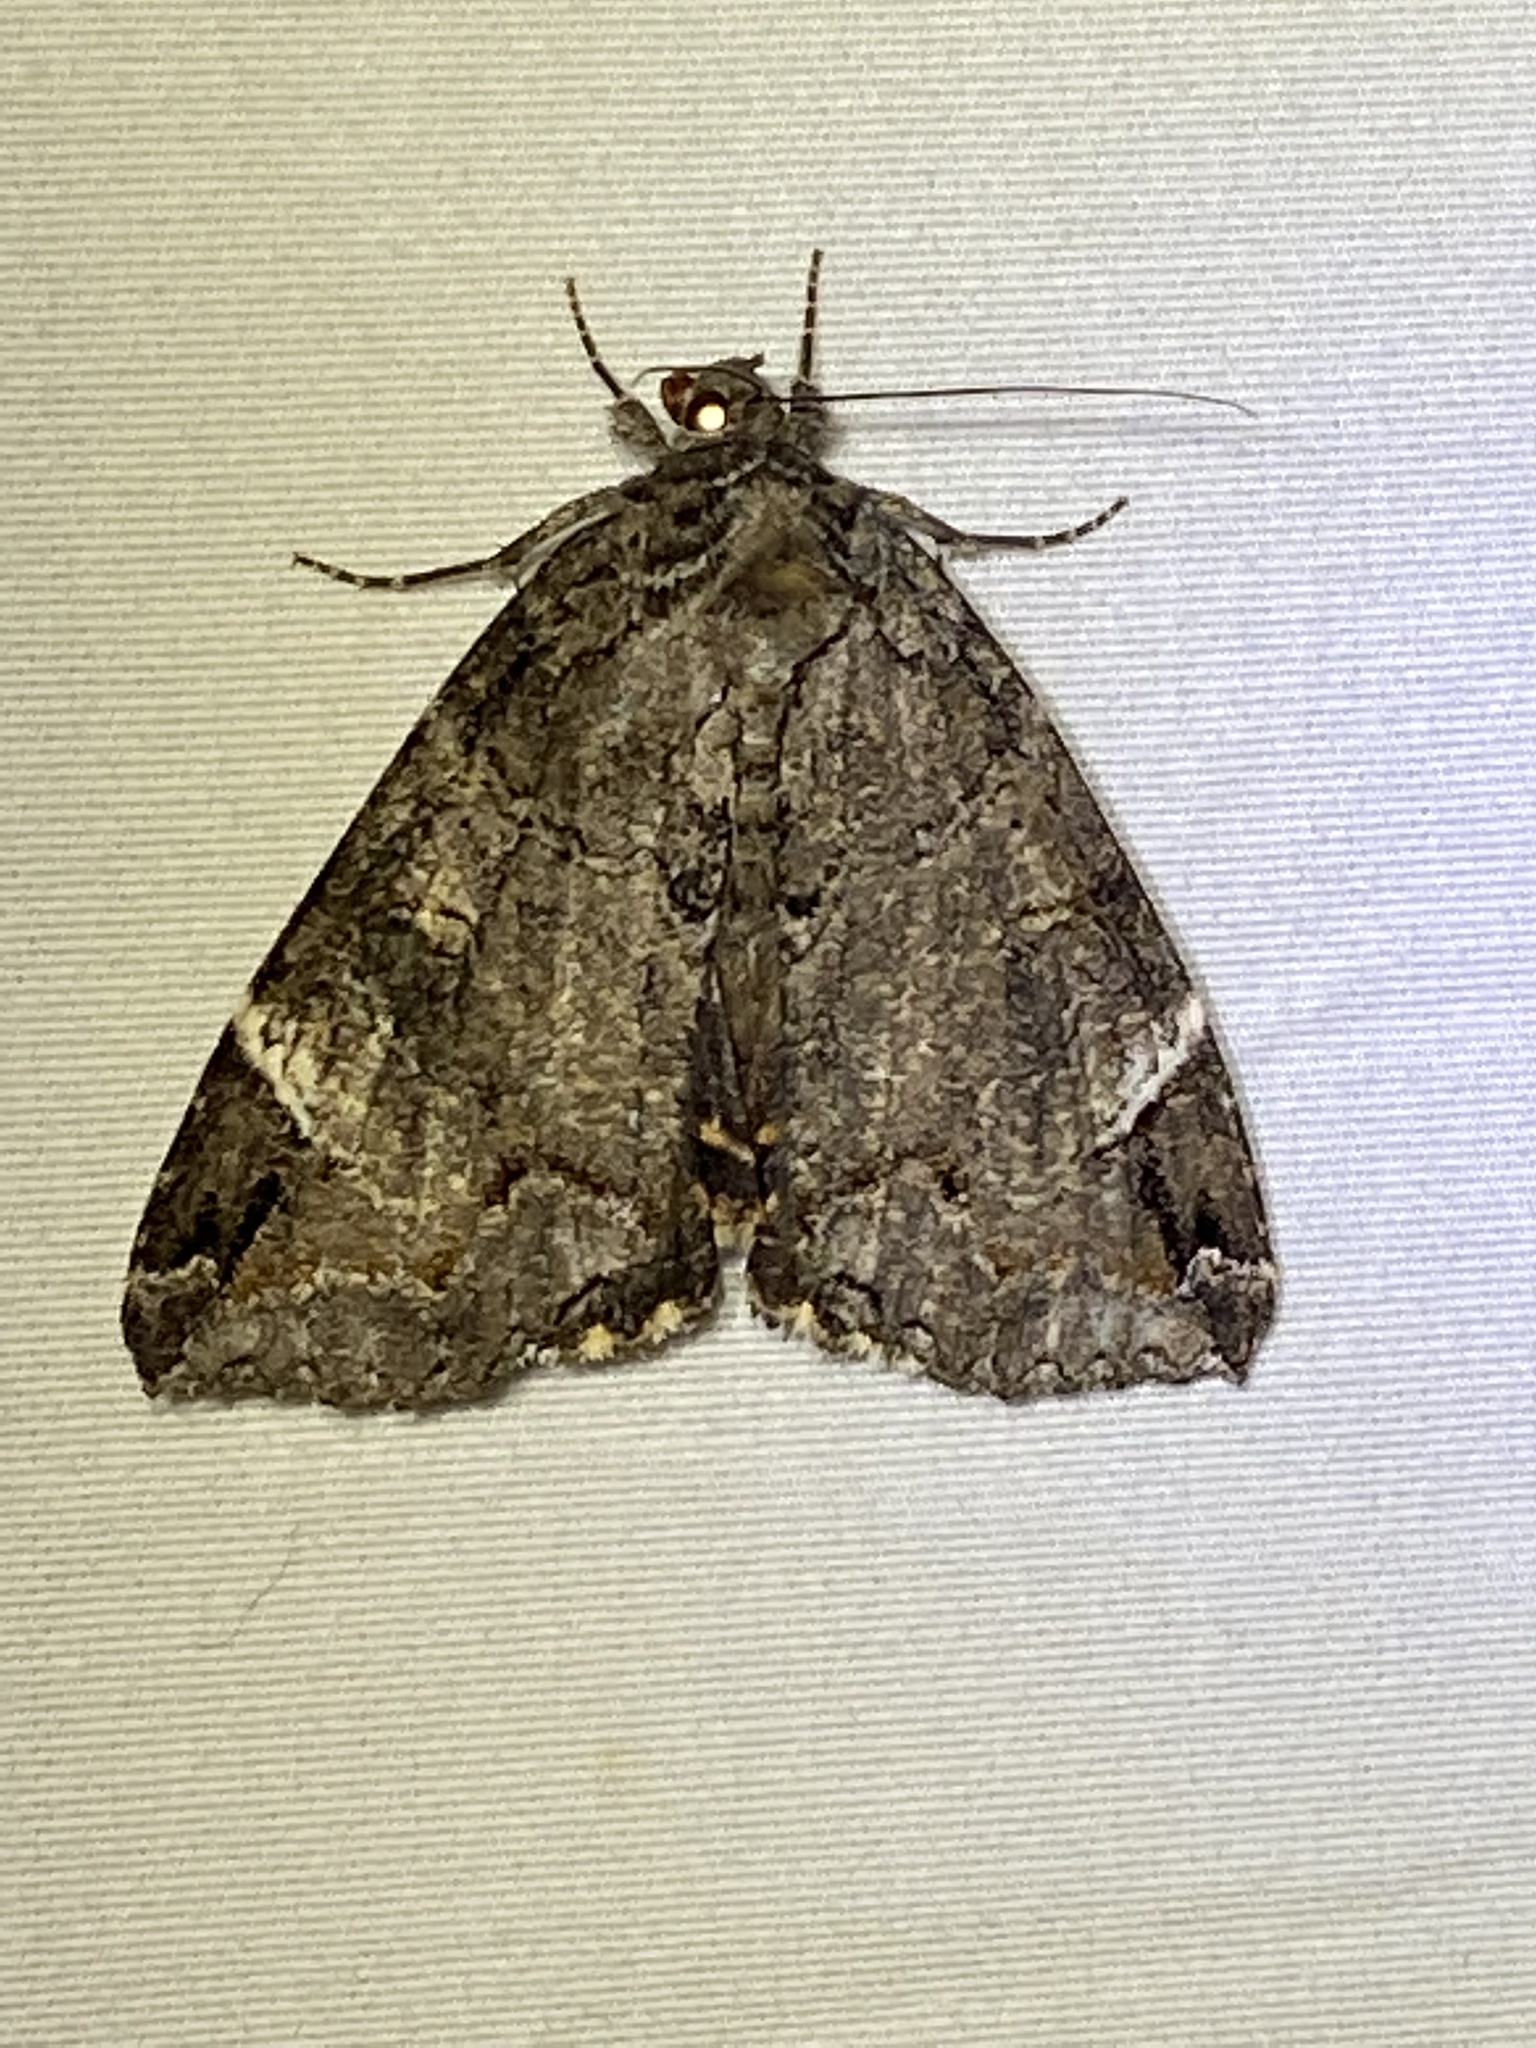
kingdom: Animalia
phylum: Arthropoda
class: Insecta
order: Lepidoptera
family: Erebidae
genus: Euparthenos
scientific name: Euparthenos nubilis
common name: Locust underwing
